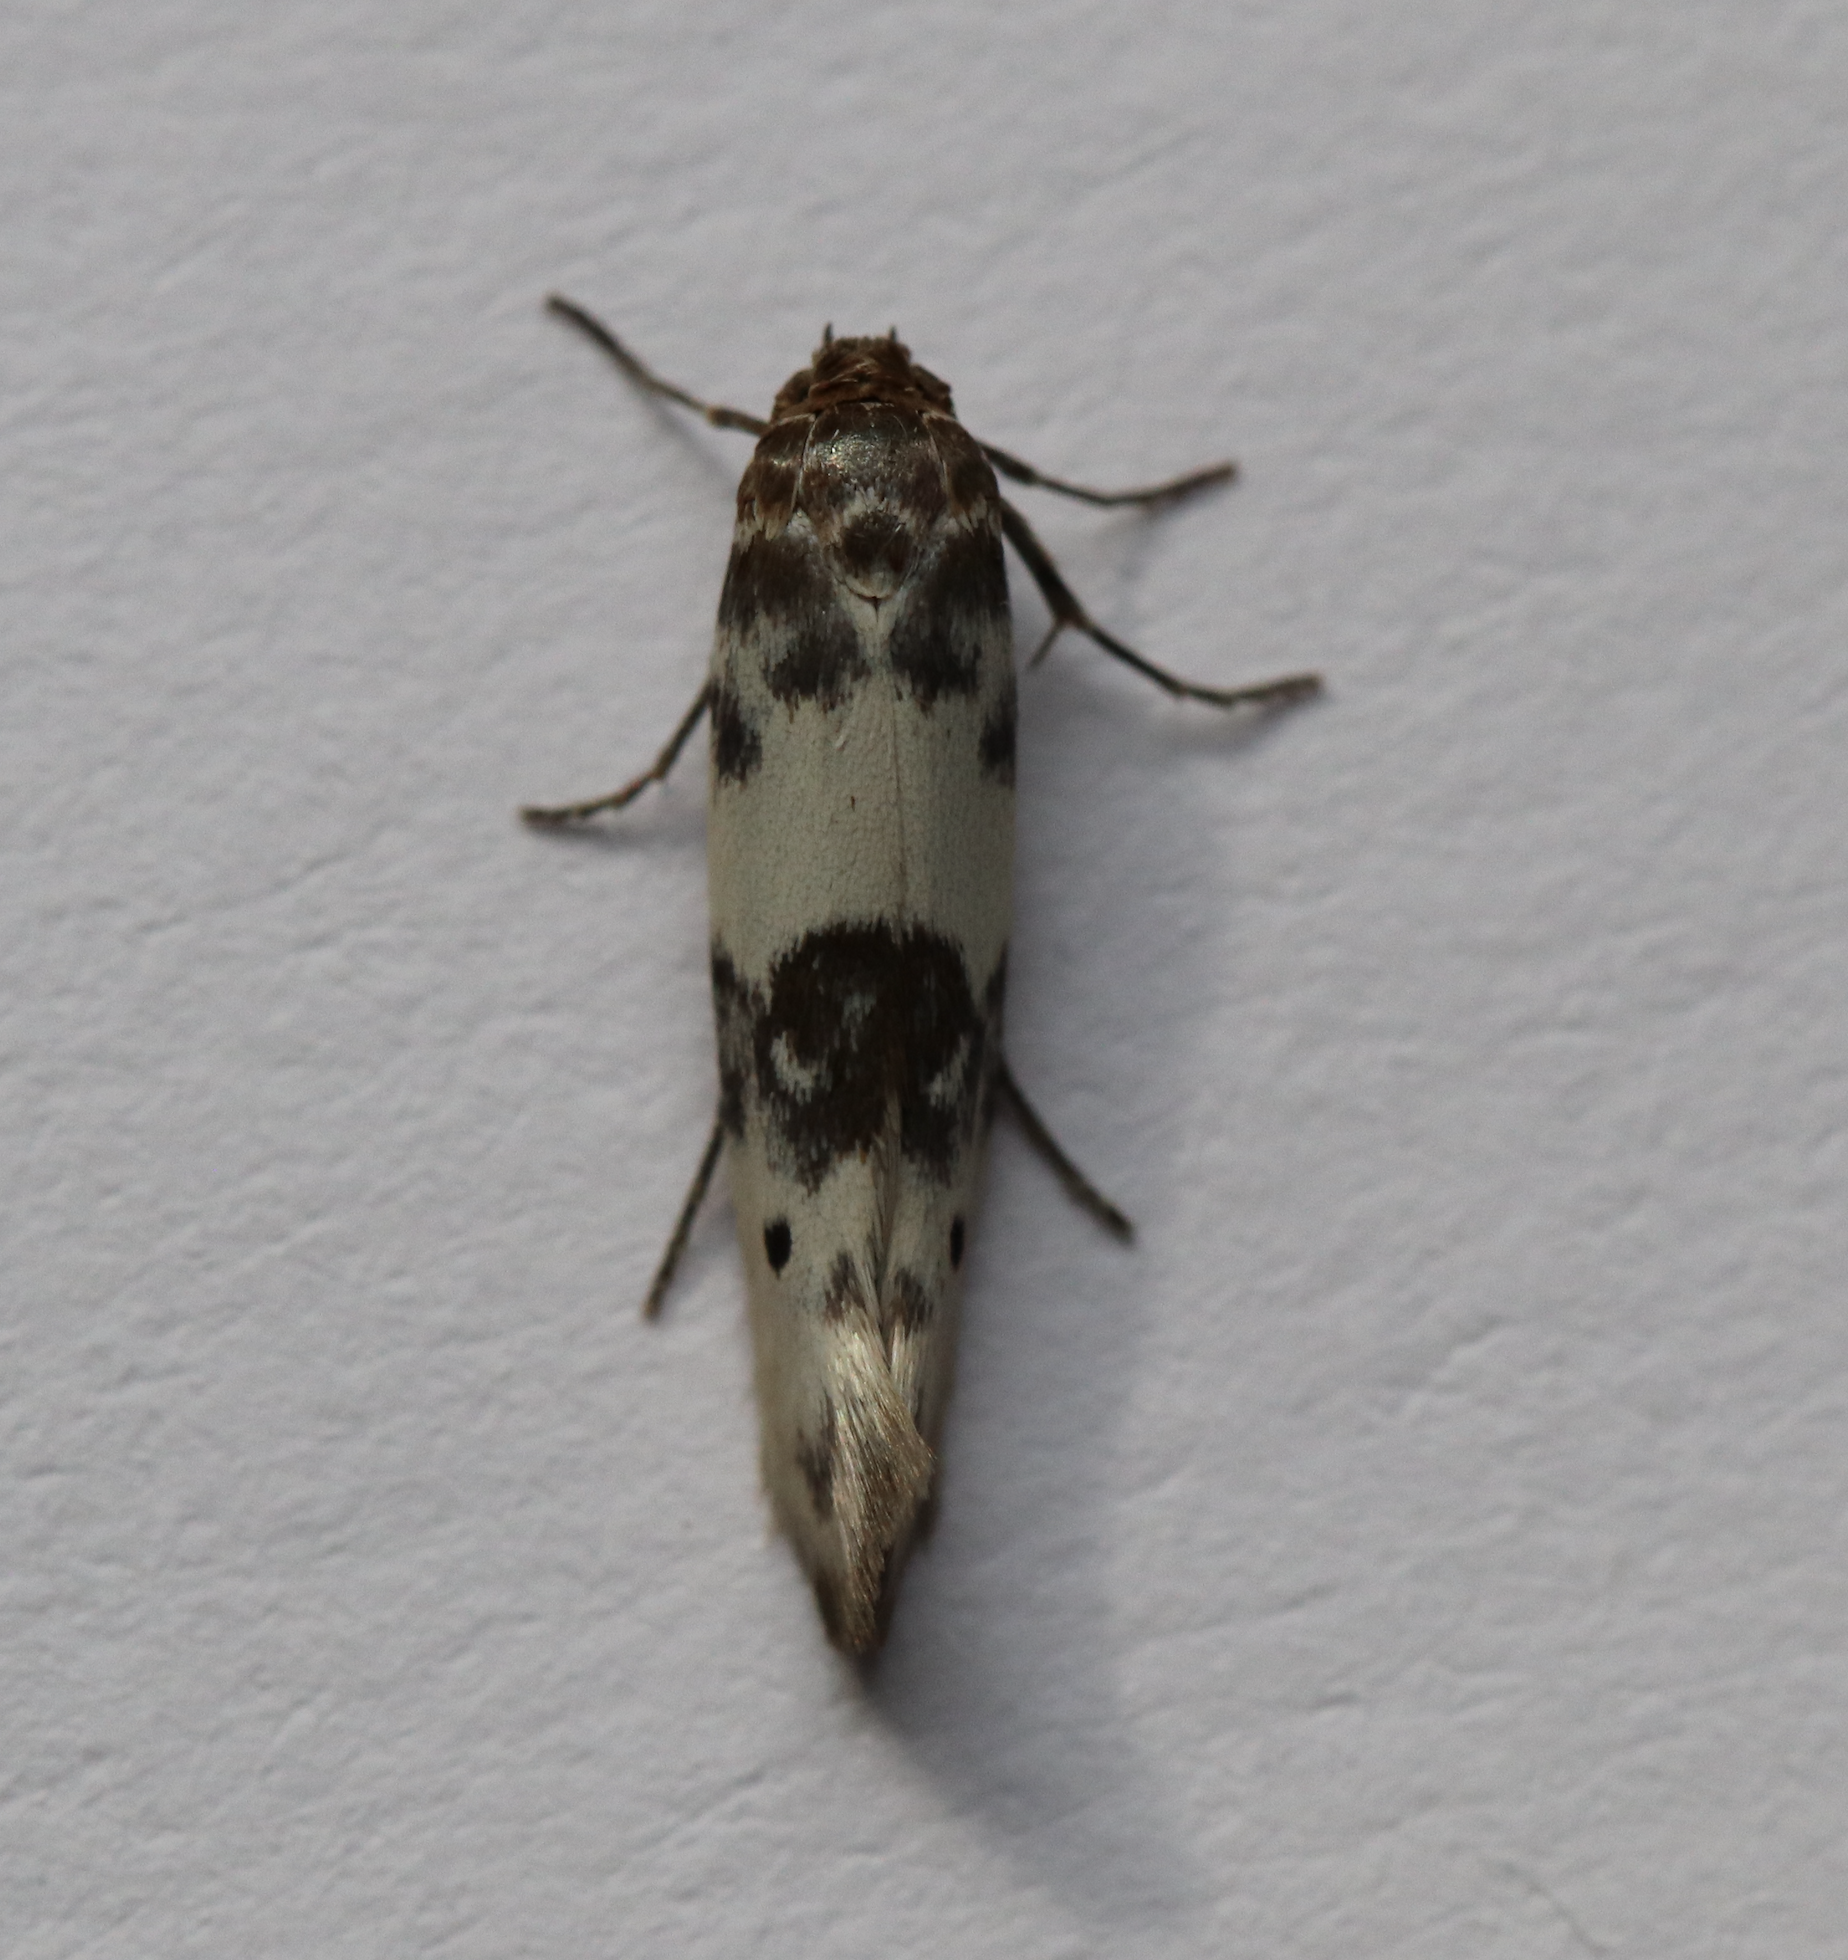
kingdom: Animalia
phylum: Arthropoda
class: Insecta
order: Lepidoptera
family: Scythrididae
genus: Enolmis
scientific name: Enolmis acanthella
